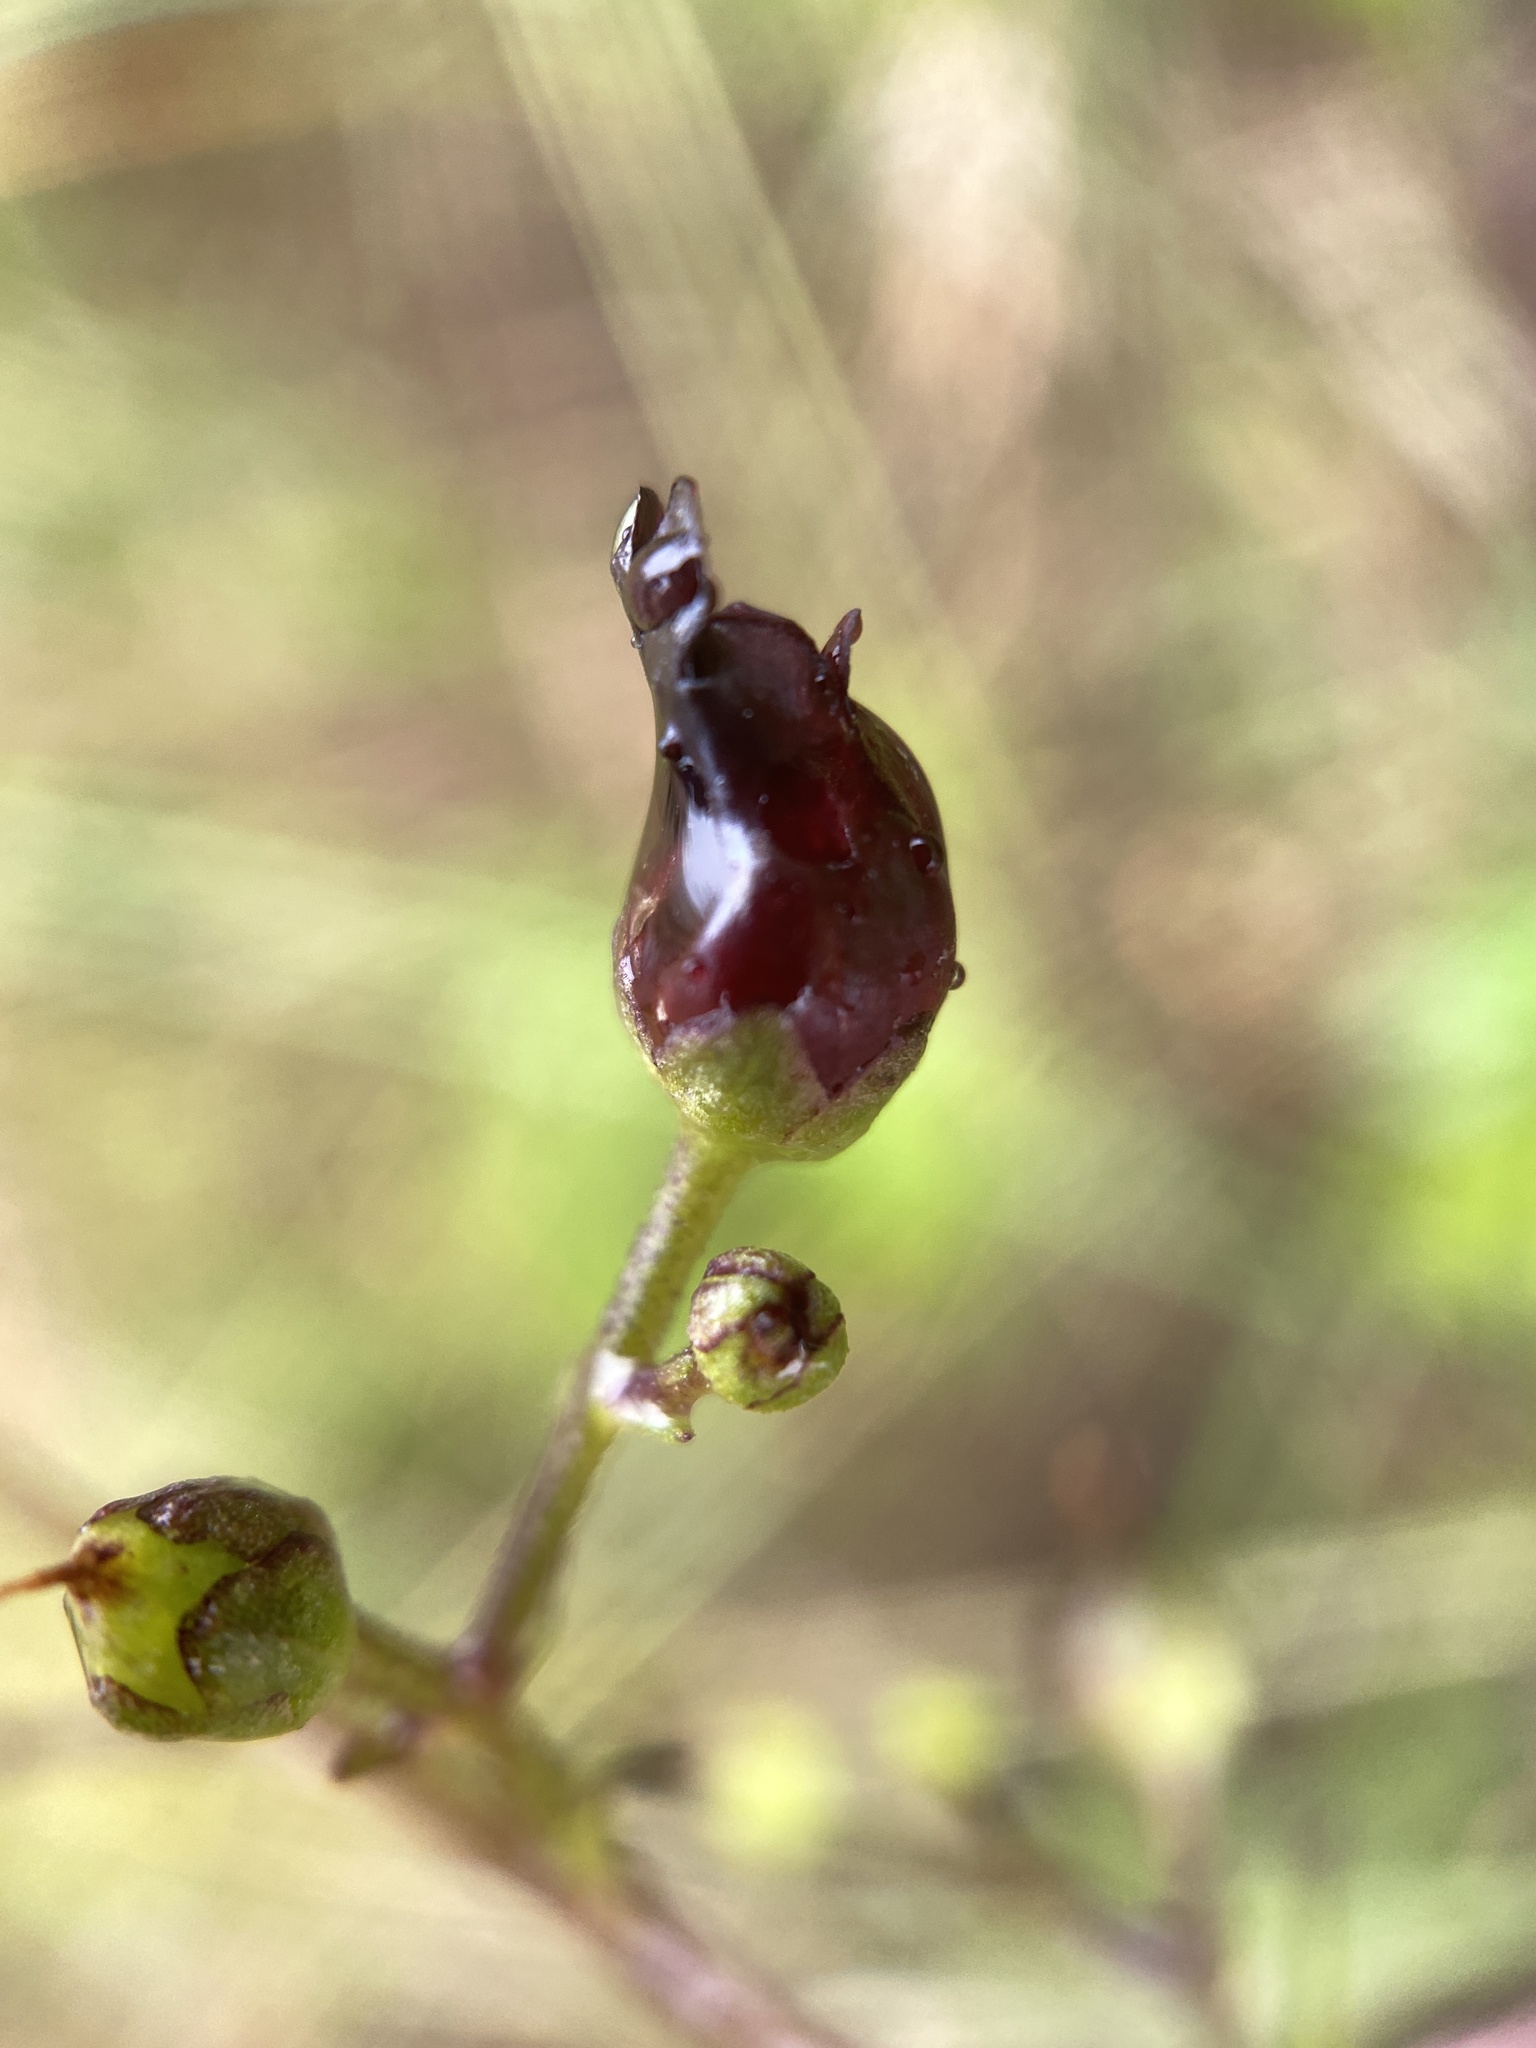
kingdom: Plantae
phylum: Tracheophyta
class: Magnoliopsida
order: Lamiales
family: Scrophulariaceae
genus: Scrophularia
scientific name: Scrophularia atrata
